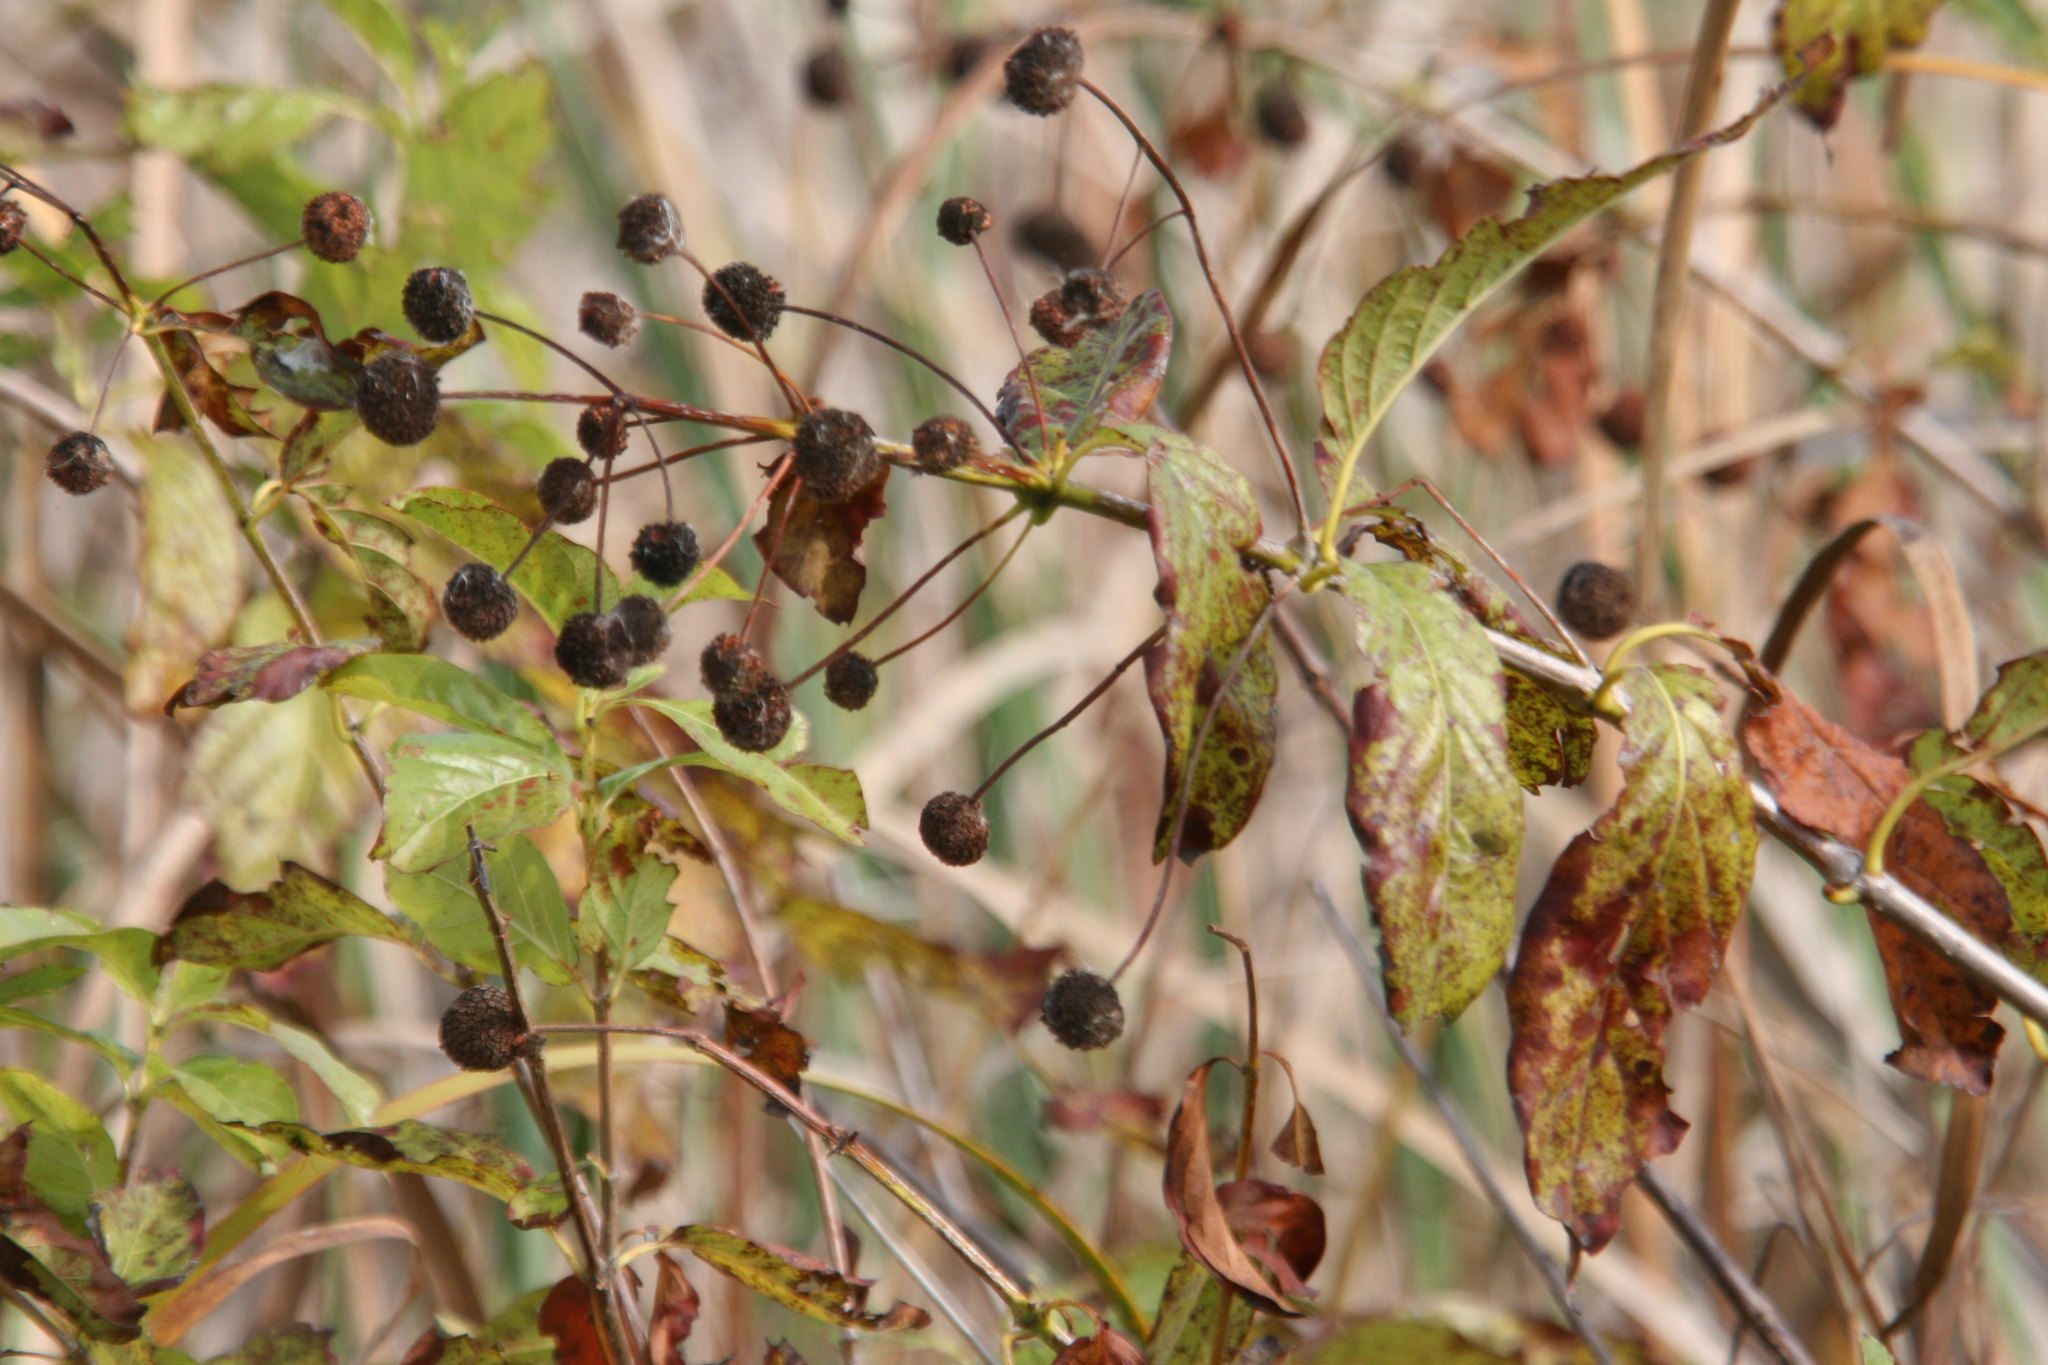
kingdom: Plantae
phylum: Tracheophyta
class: Magnoliopsida
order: Gentianales
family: Rubiaceae
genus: Cephalanthus
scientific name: Cephalanthus occidentalis
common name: Button-willow
